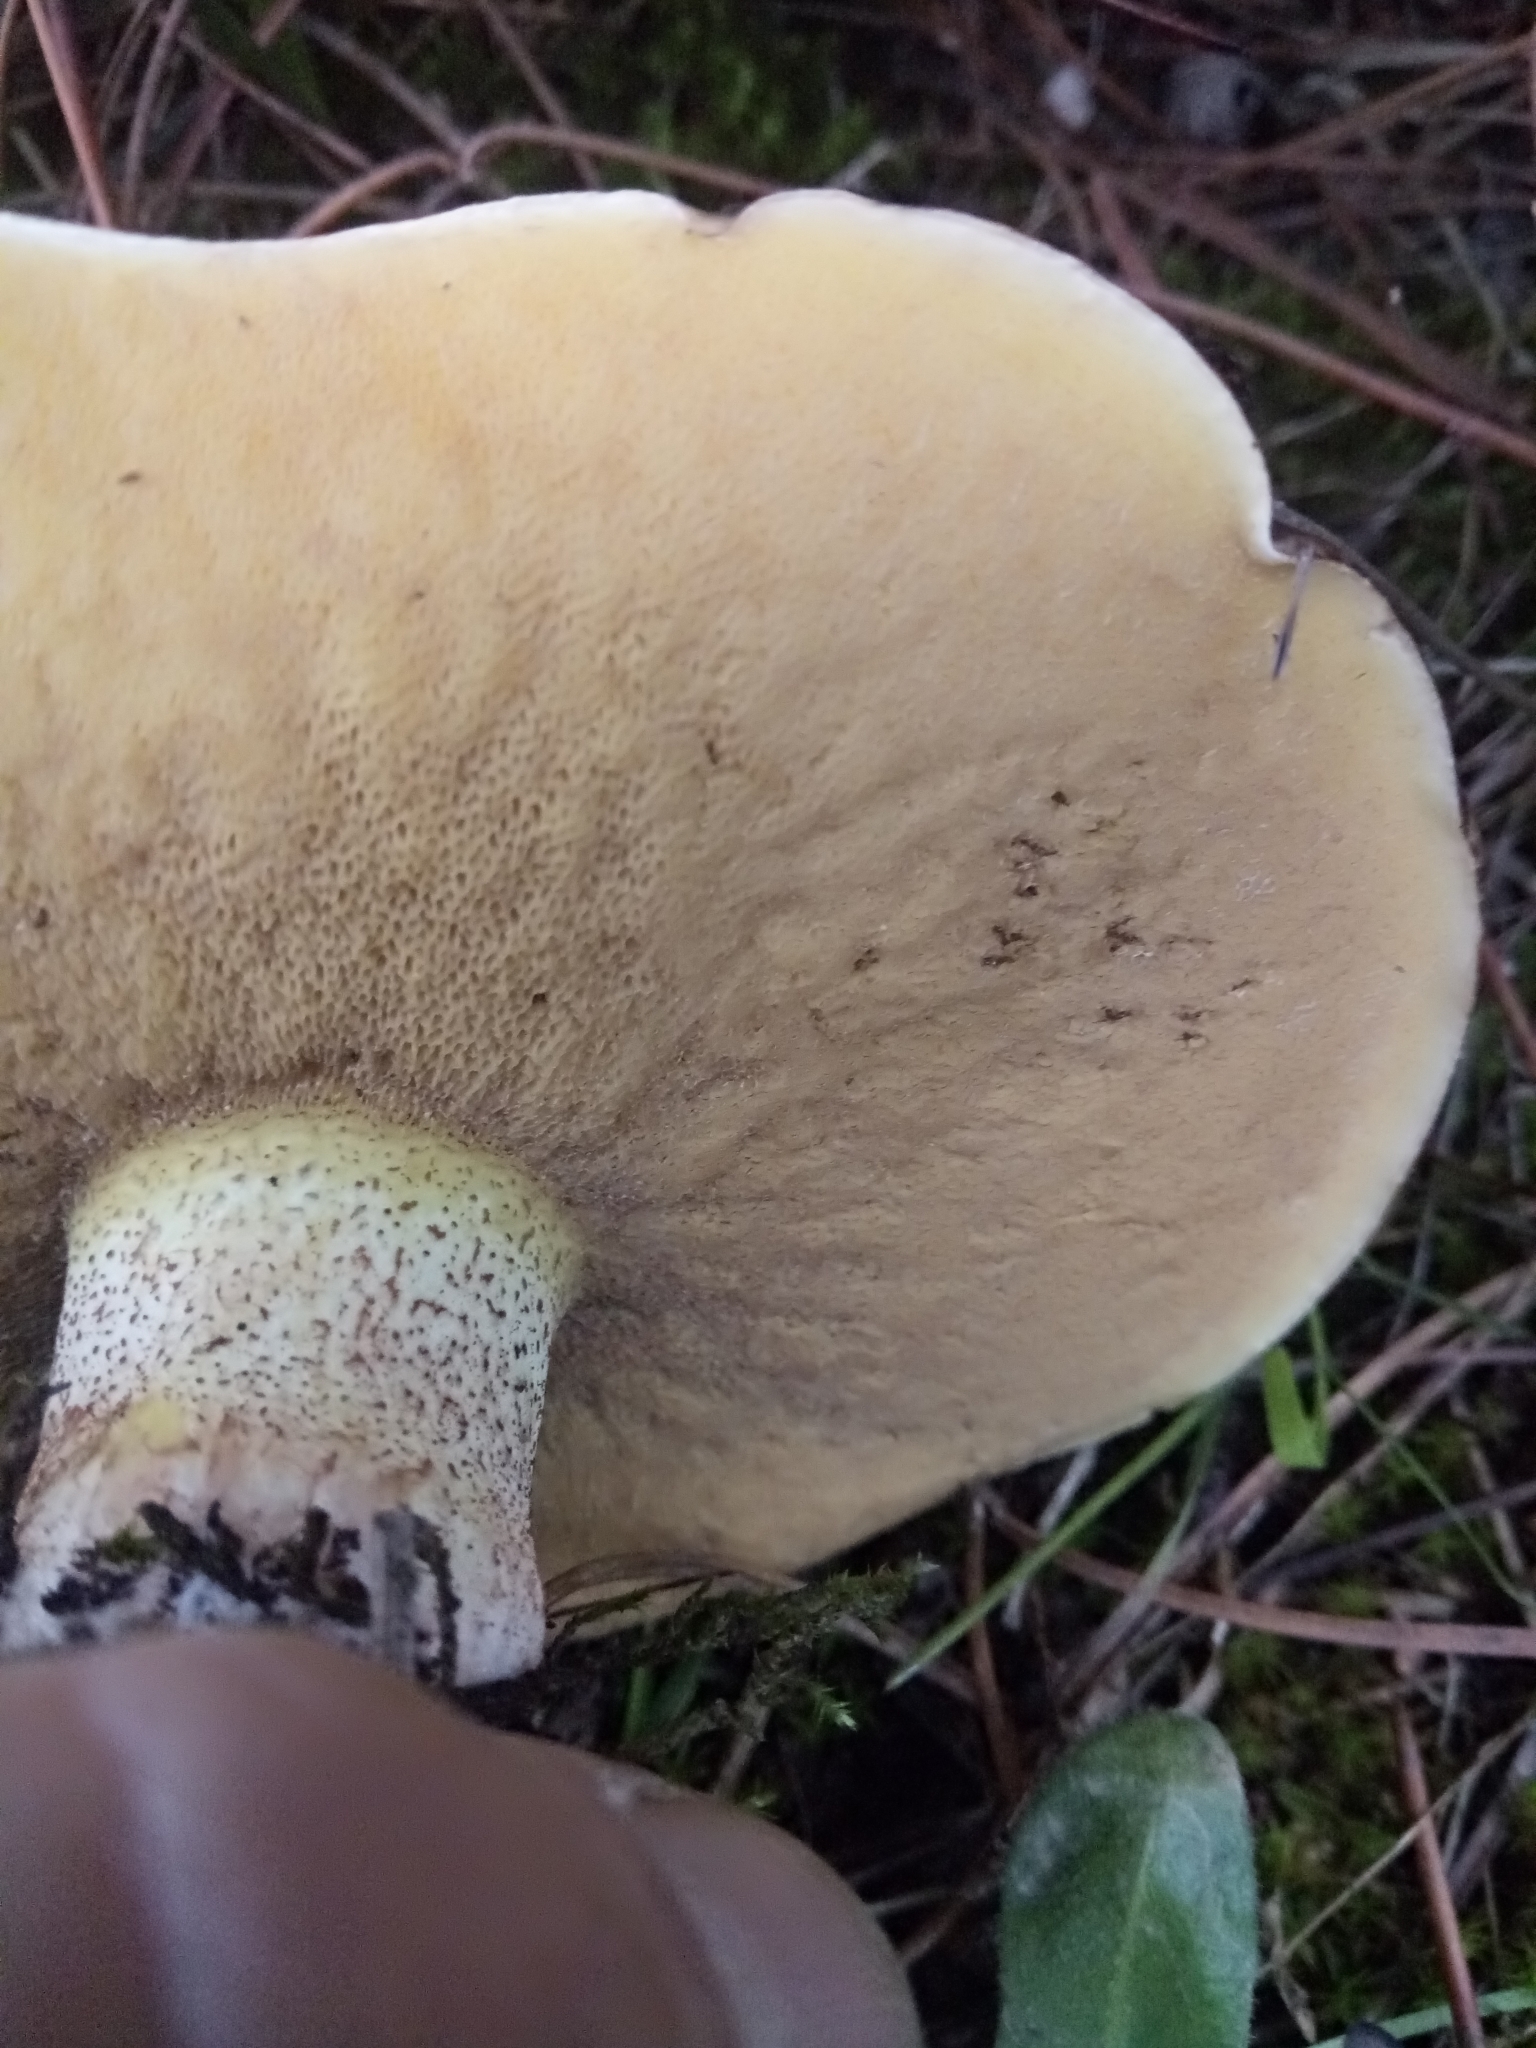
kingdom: Fungi
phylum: Basidiomycota
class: Agaricomycetes
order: Boletales
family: Suillaceae
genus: Suillus
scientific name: Suillus bellinii
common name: Champagne bolete
